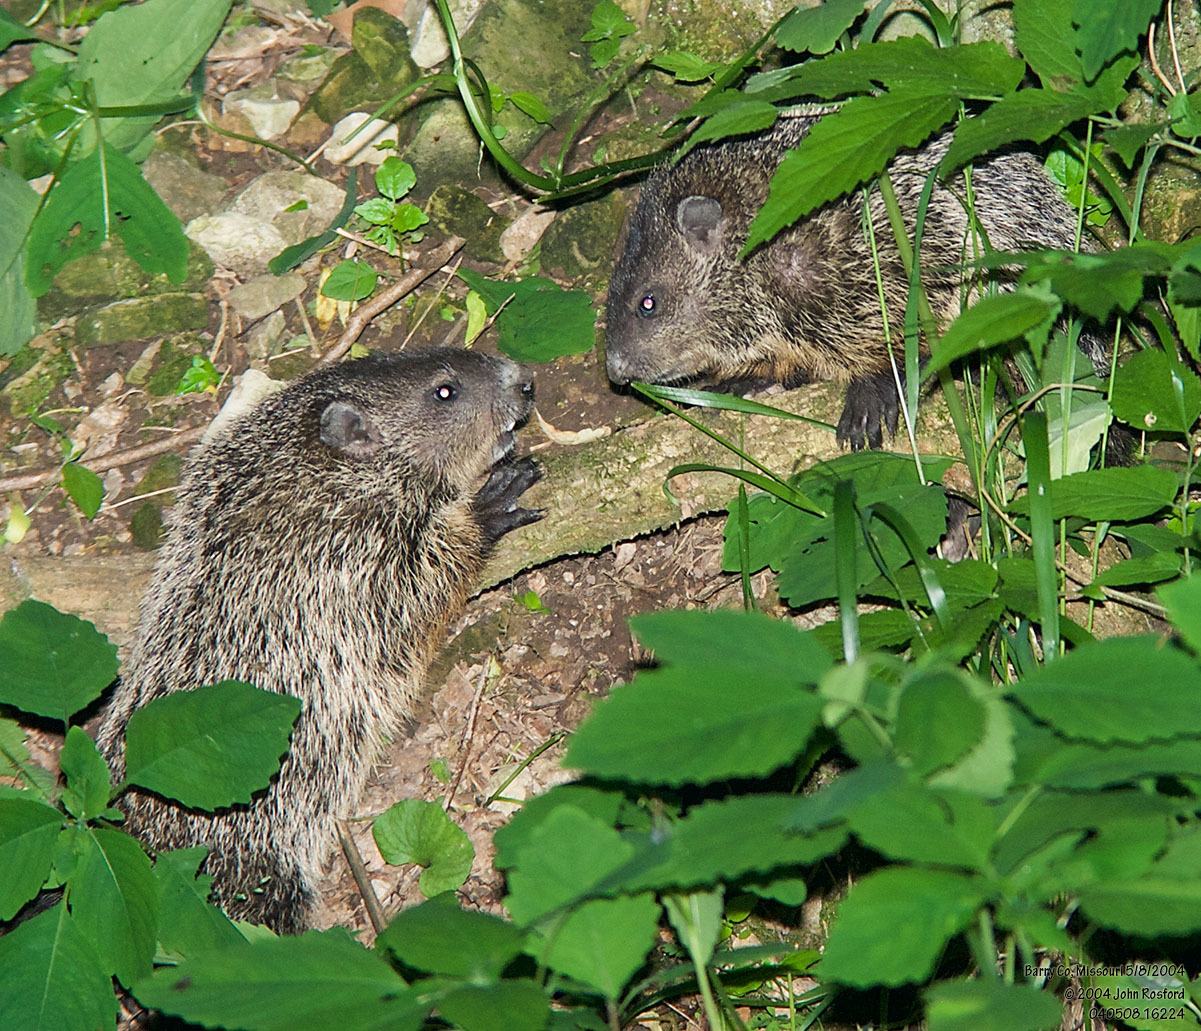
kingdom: Animalia
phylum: Chordata
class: Mammalia
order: Rodentia
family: Sciuridae
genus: Marmota
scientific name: Marmota monax
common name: Groundhog
